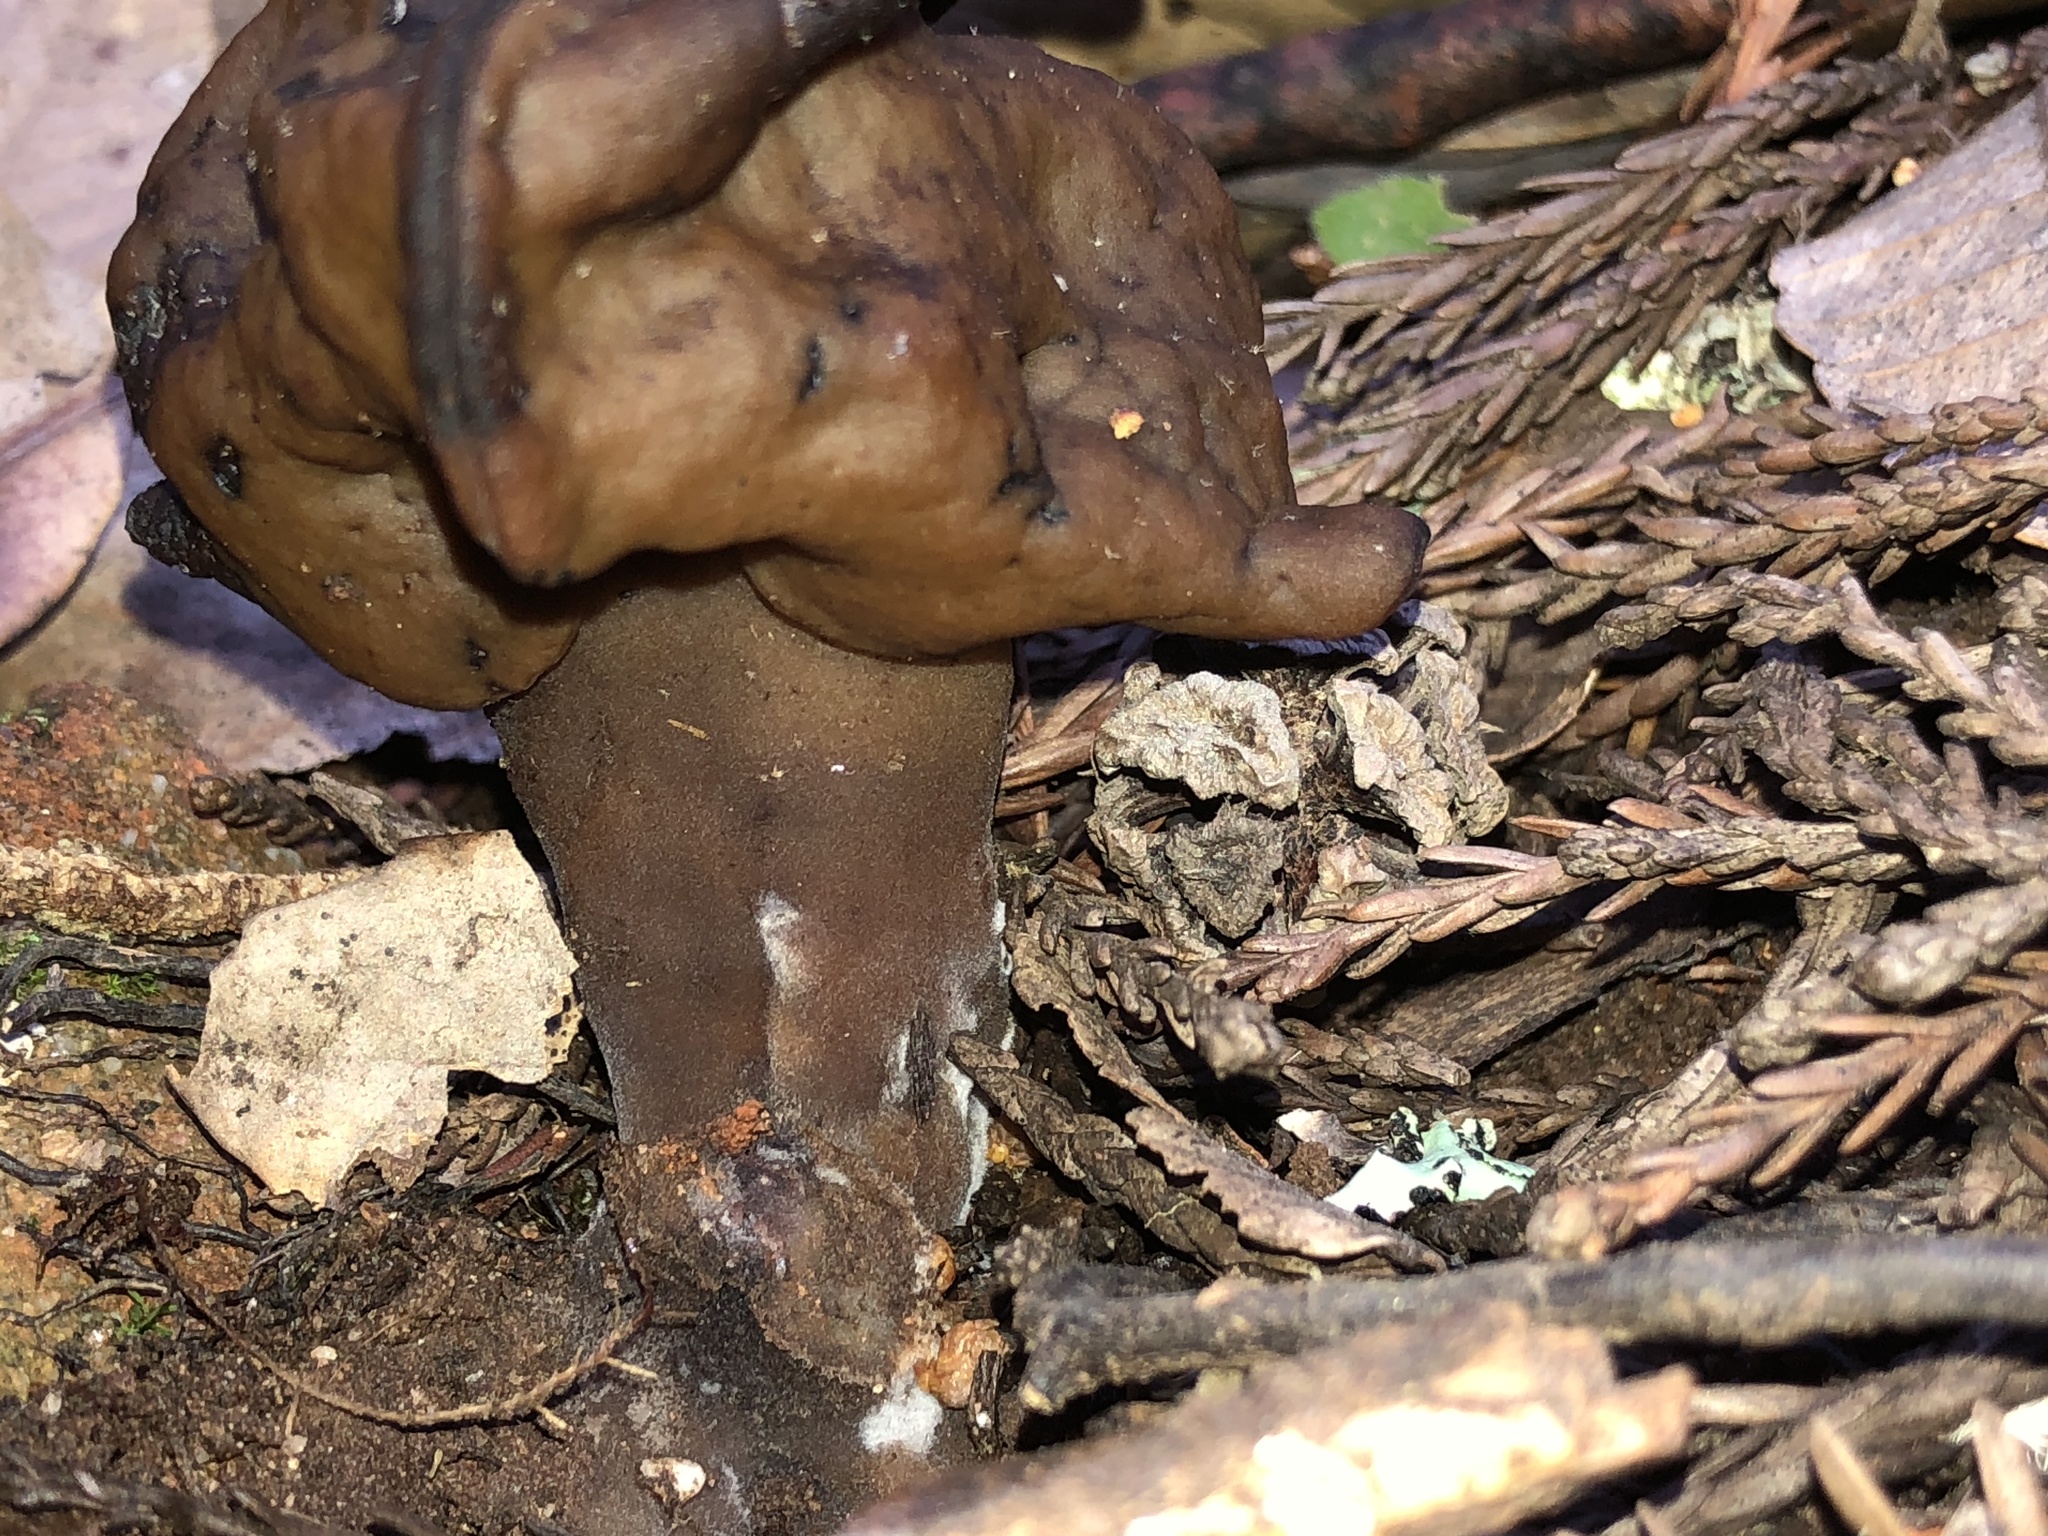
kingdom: Fungi
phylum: Ascomycota
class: Pezizomycetes
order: Pezizales
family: Discinaceae
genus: Gyromitra
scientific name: Gyromitra infula
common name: Pouched false morel
